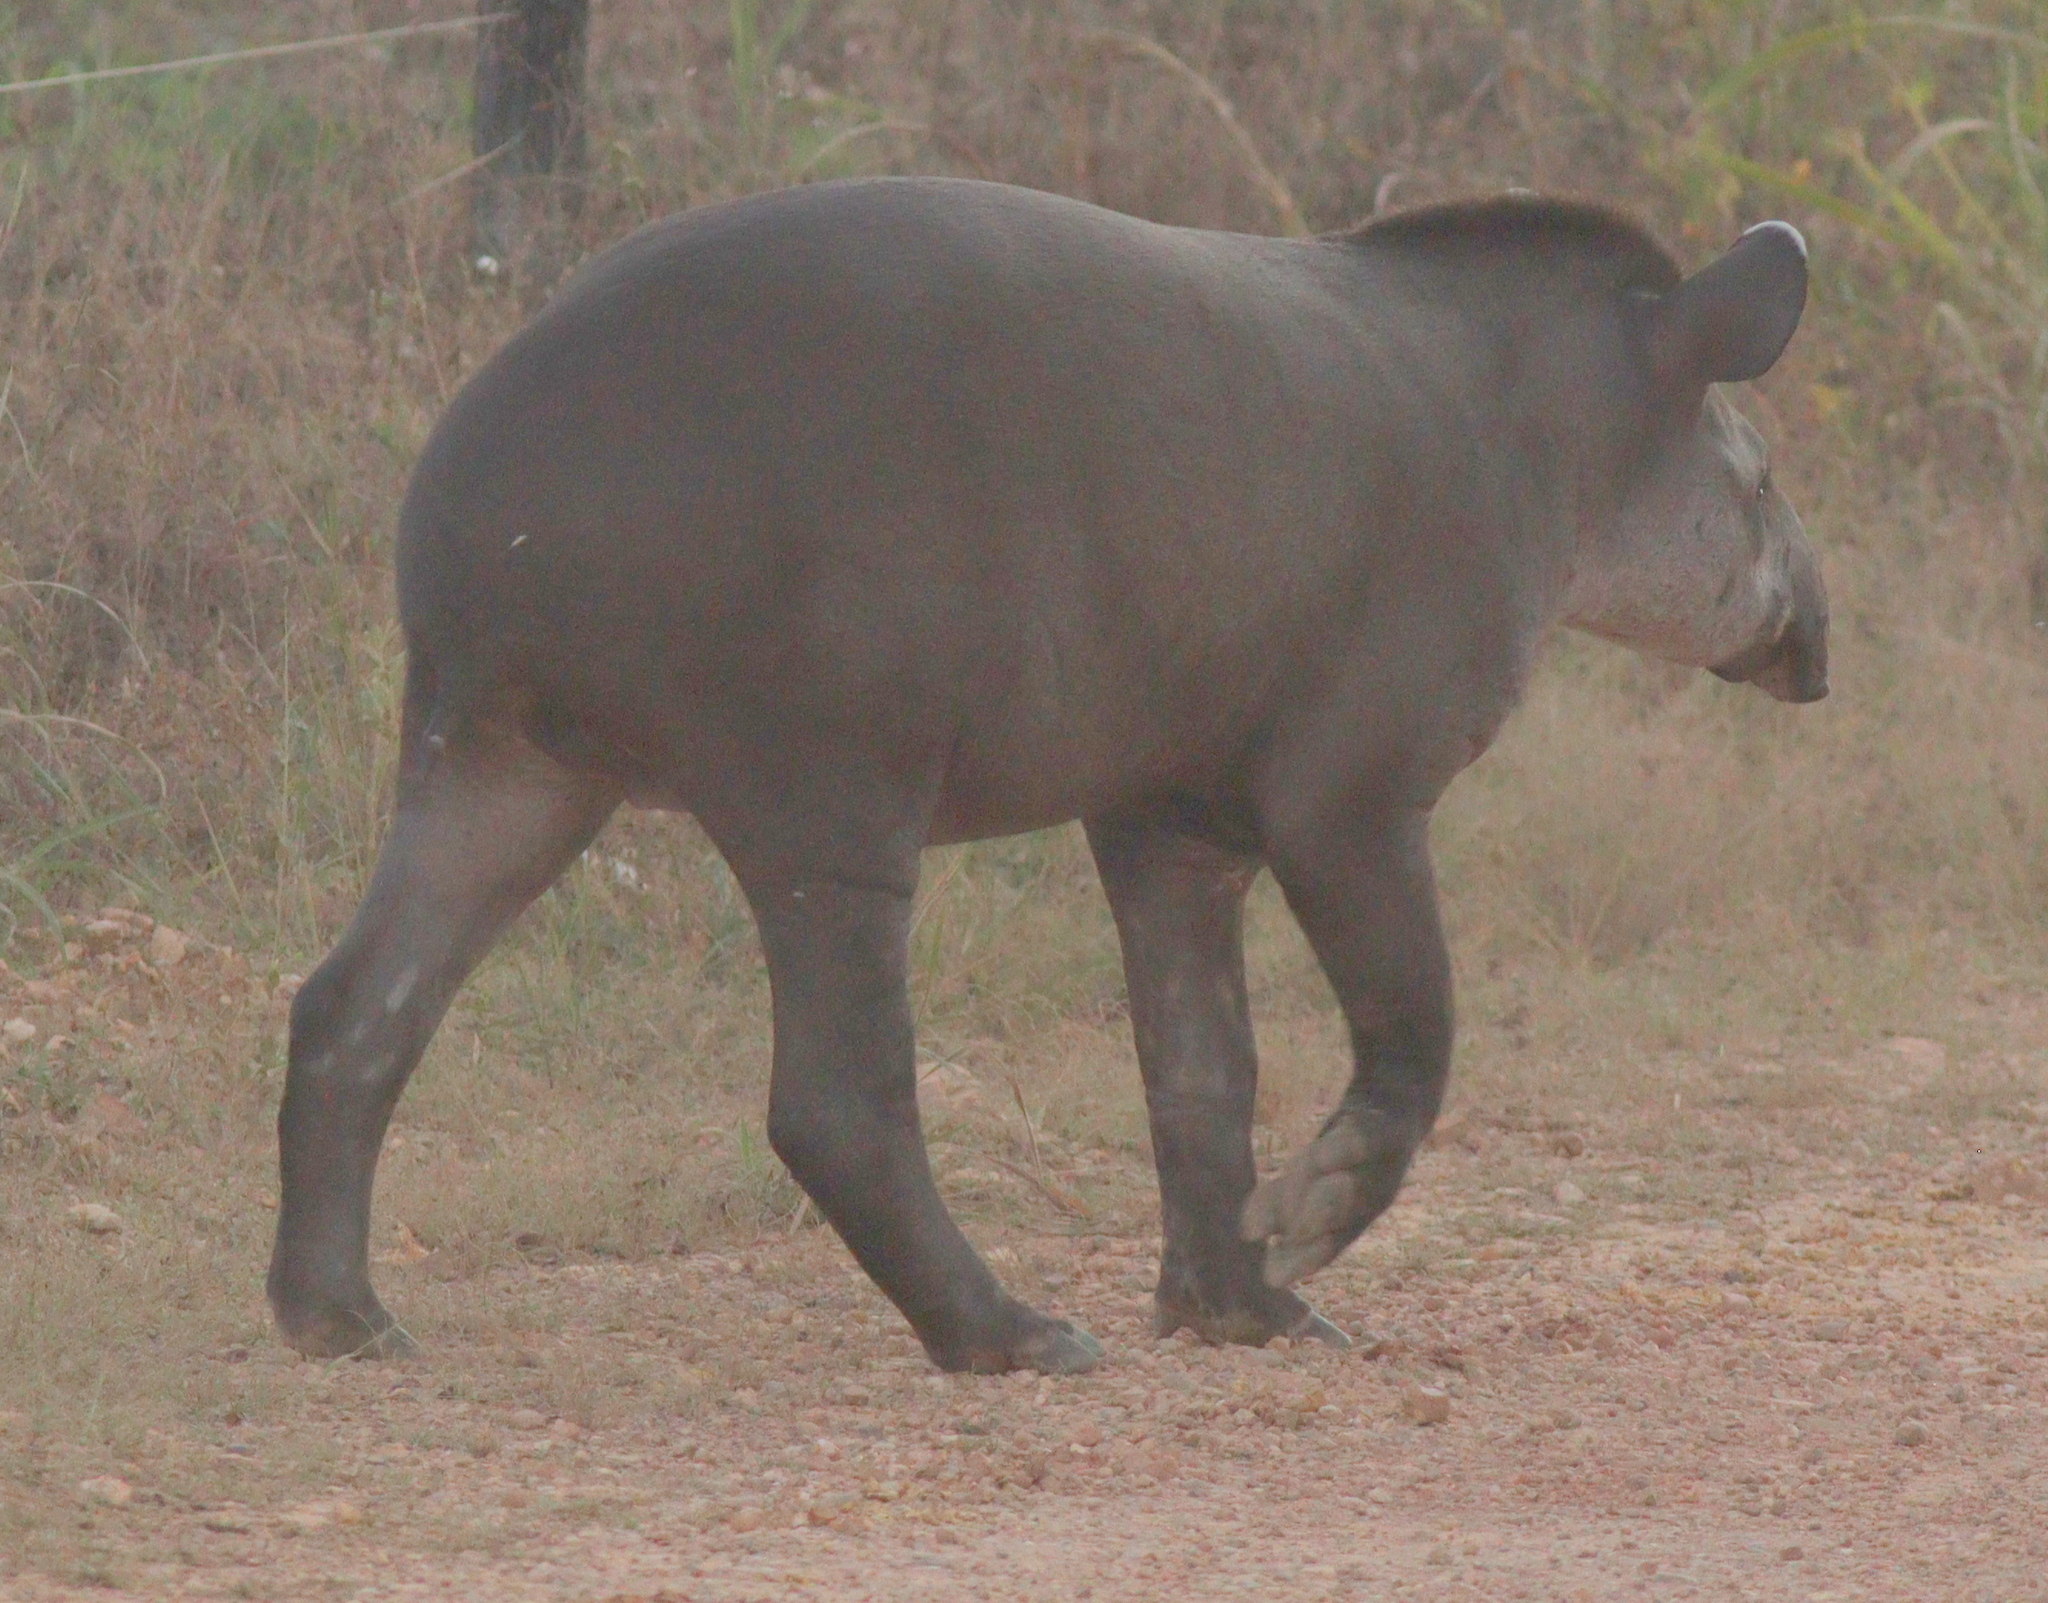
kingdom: Animalia
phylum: Chordata
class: Mammalia
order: Perissodactyla
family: Tapiridae
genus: Tapirus
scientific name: Tapirus terrestris
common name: Brazilian tapir
